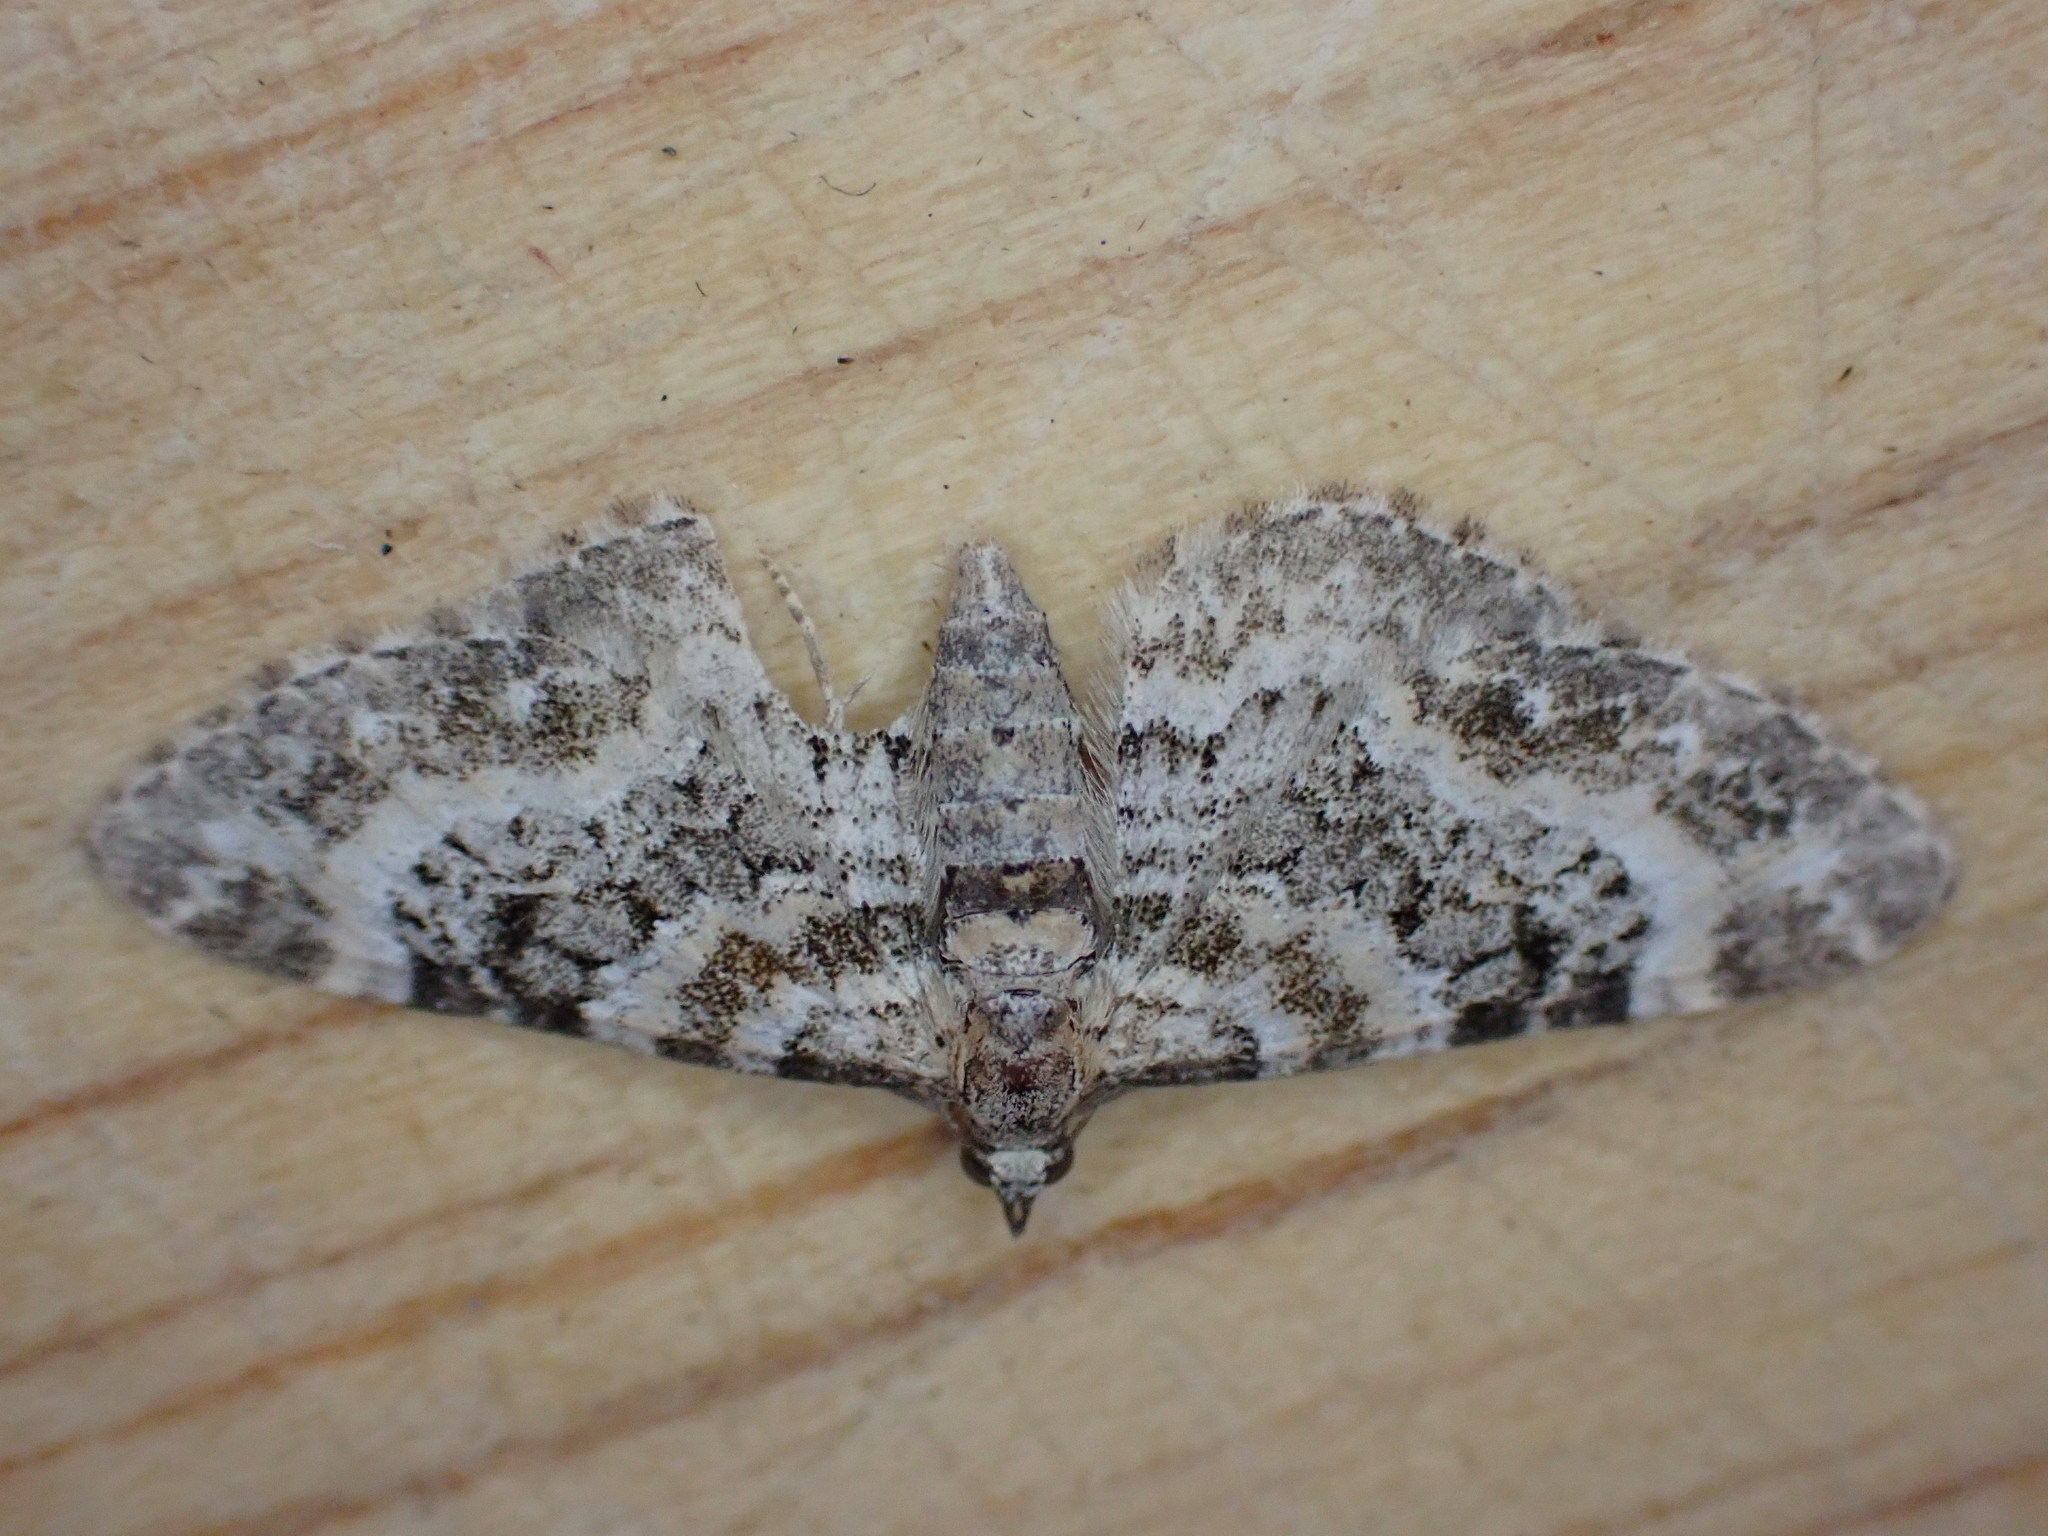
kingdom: Animalia
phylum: Arthropoda
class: Insecta
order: Lepidoptera
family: Geometridae
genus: Eupithecia
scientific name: Eupithecia pulchellata
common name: Foxglove pug
